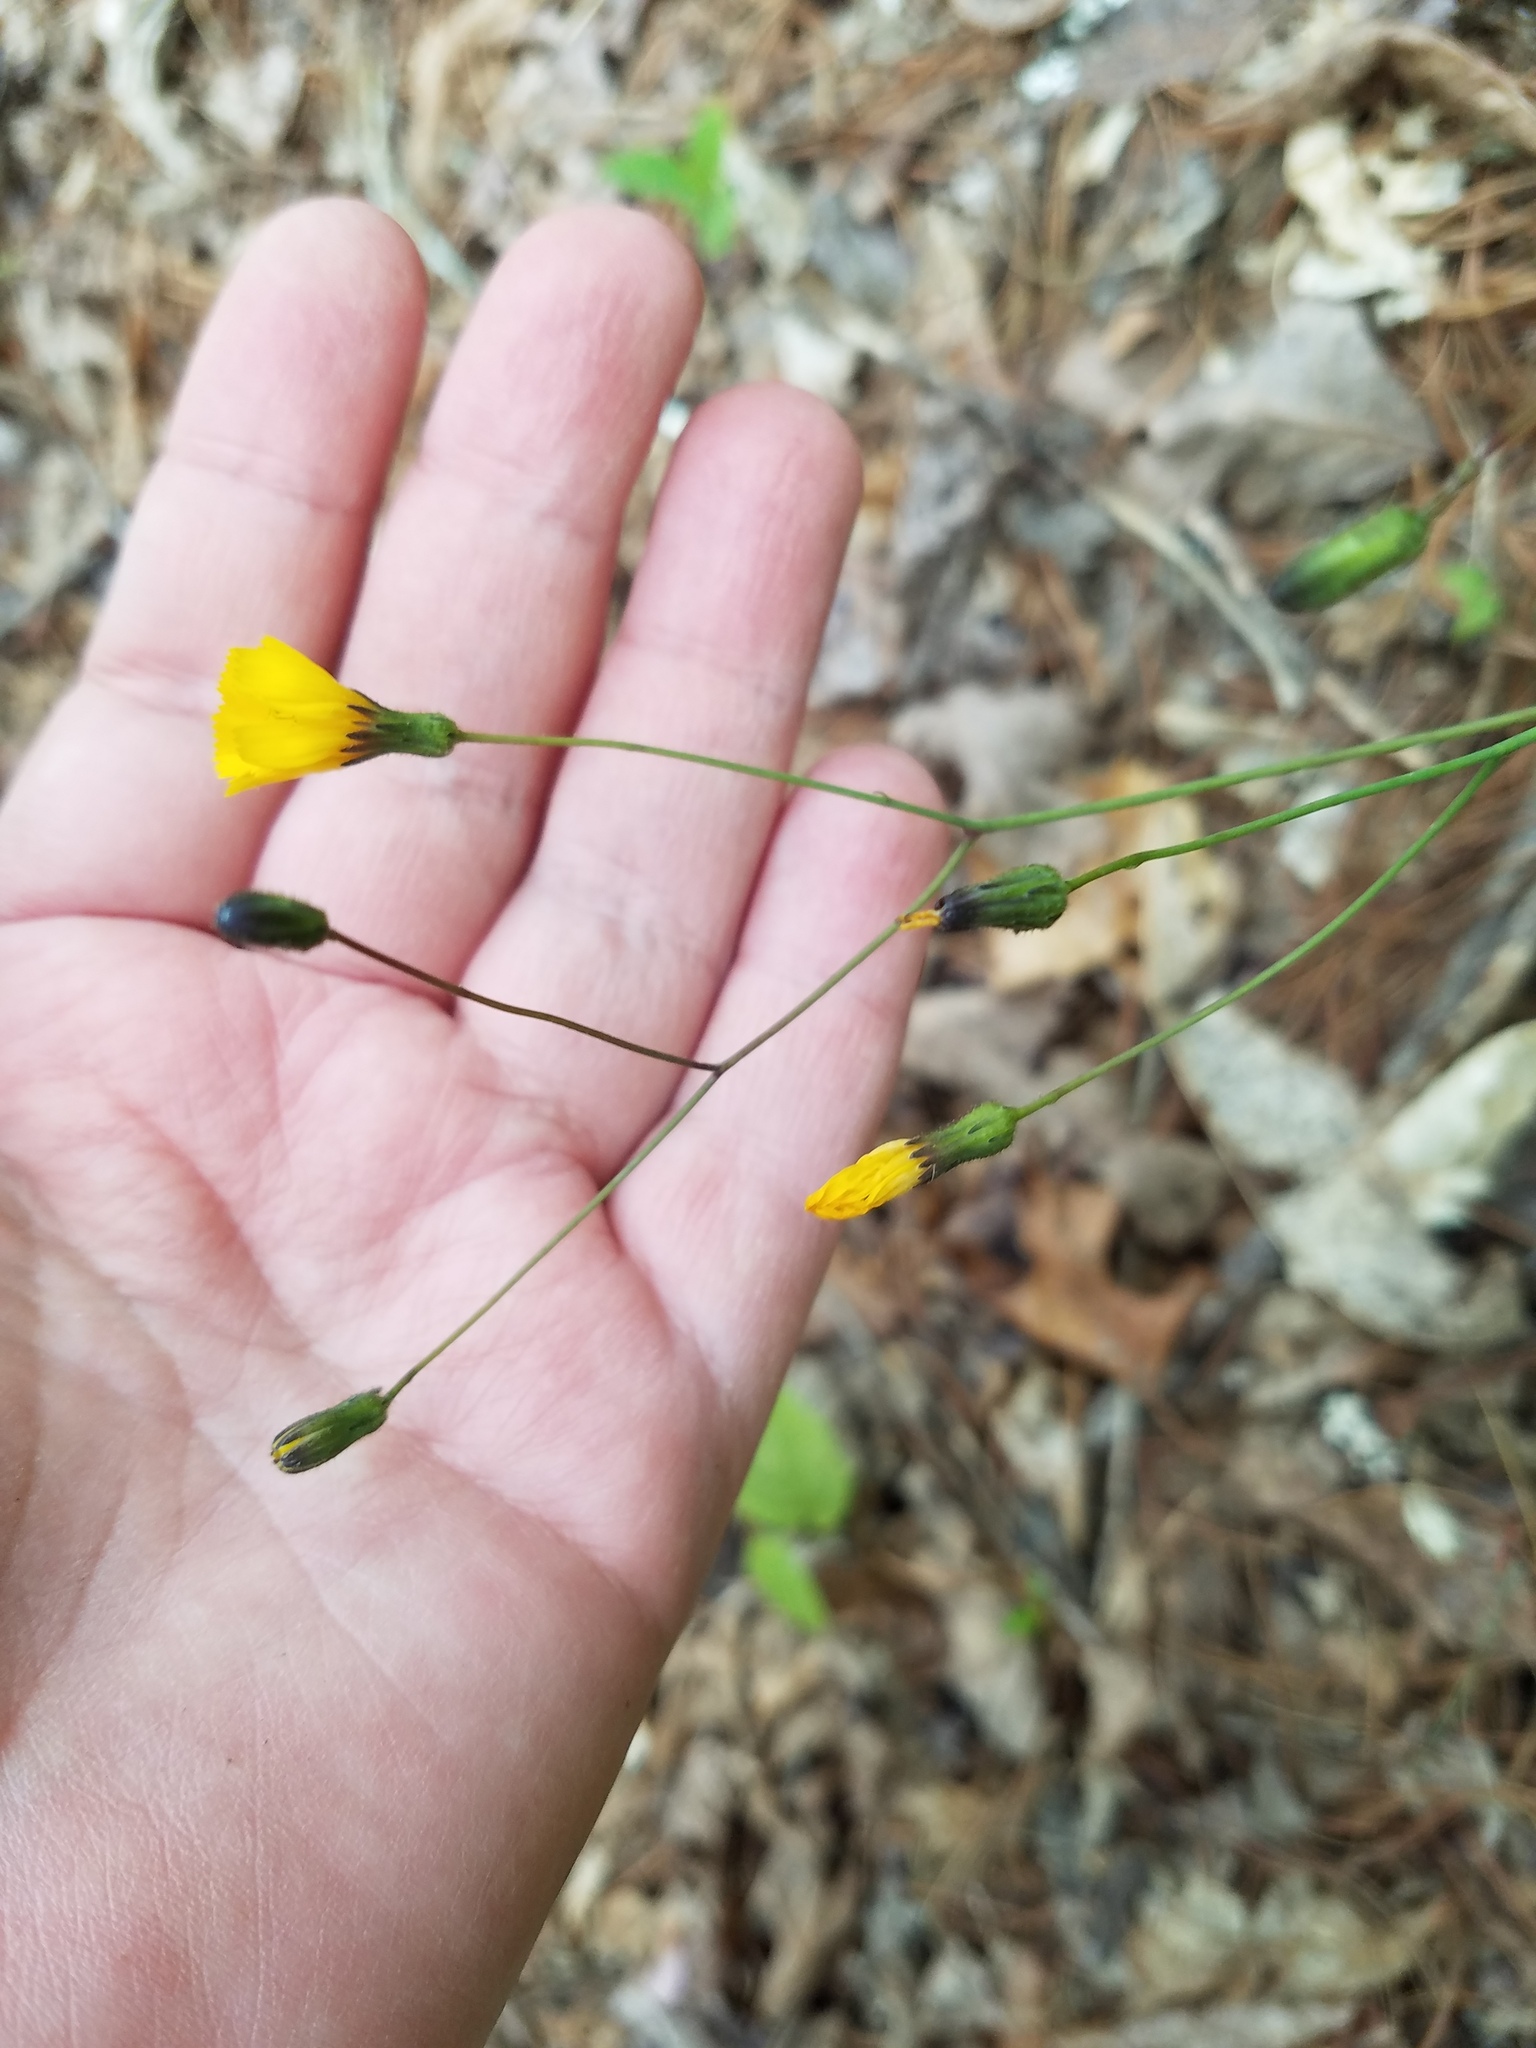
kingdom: Plantae
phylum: Tracheophyta
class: Magnoliopsida
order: Asterales
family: Asteraceae
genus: Hieracium
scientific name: Hieracium venosum
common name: Rattlesnake hawkweed
